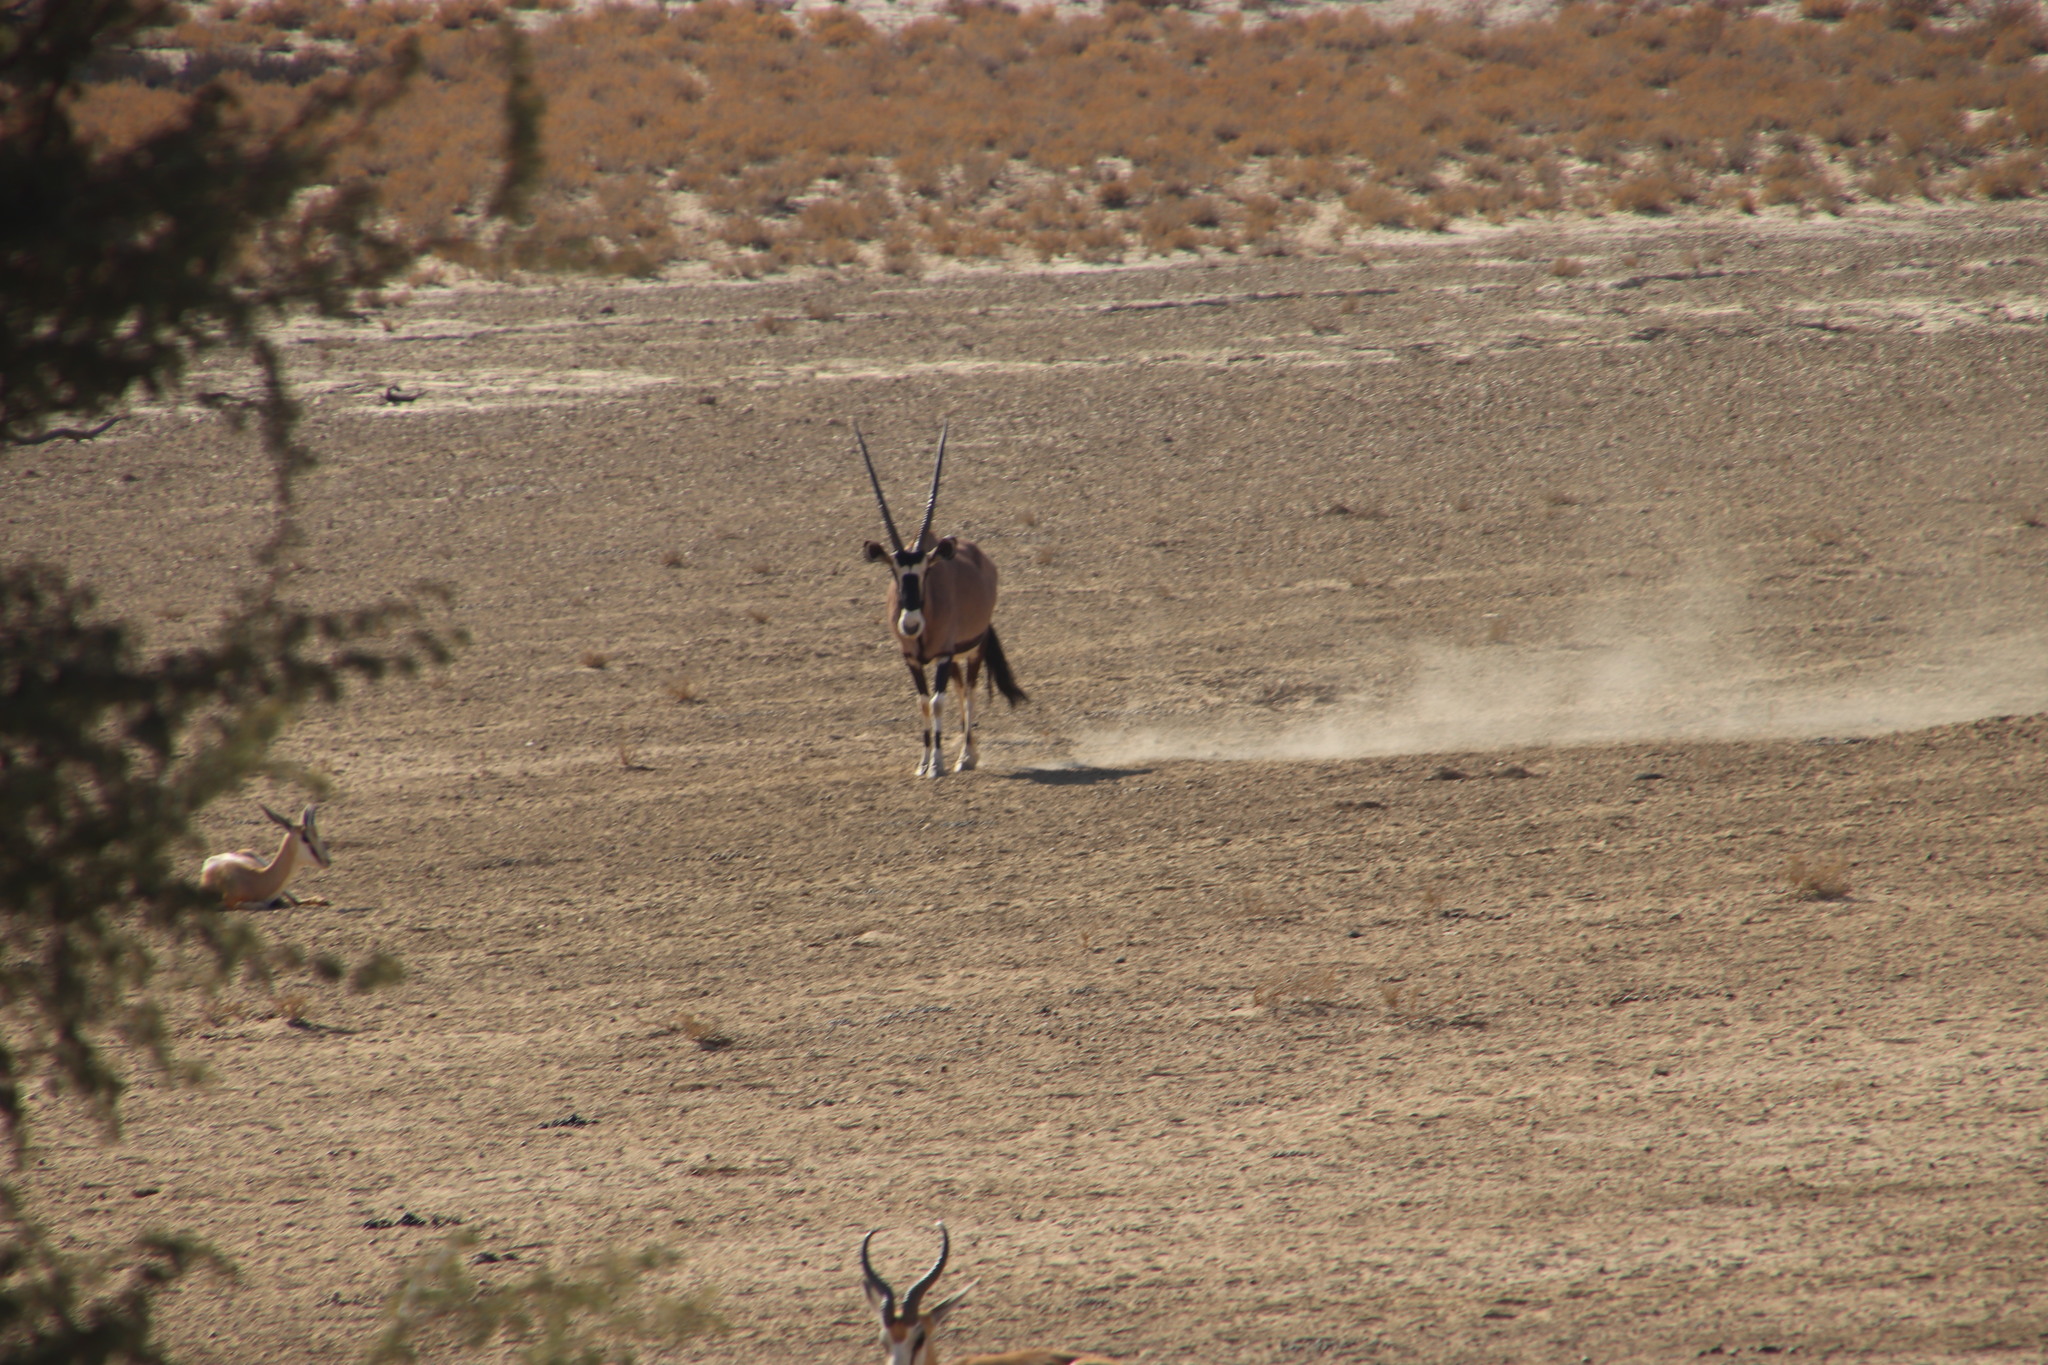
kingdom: Animalia
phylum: Chordata
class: Mammalia
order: Artiodactyla
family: Bovidae
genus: Oryx
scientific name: Oryx gazella
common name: Gemsbok
